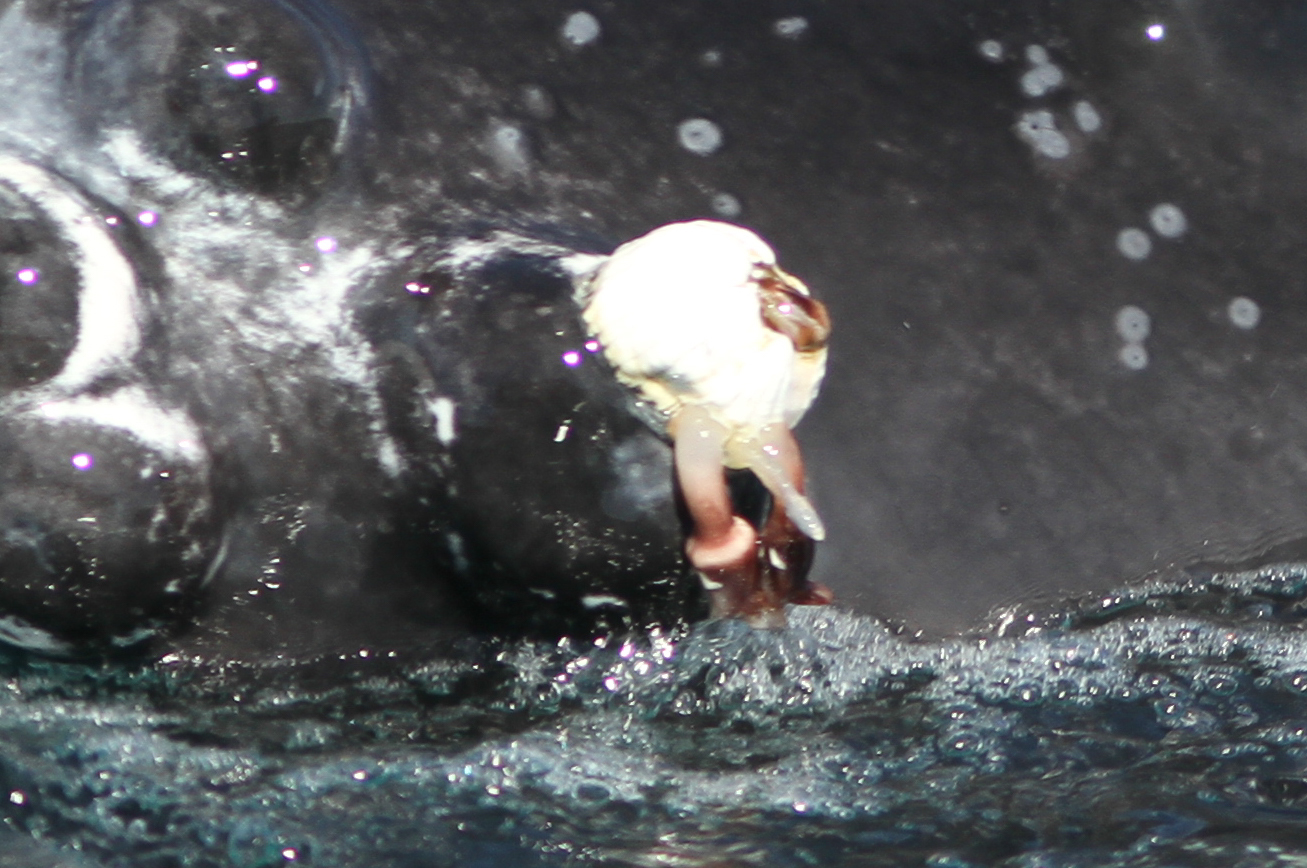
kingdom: Animalia
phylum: Arthropoda
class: Maxillopoda
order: Sessilia
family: Coronulidae
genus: Coronula
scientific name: Coronula diadema
